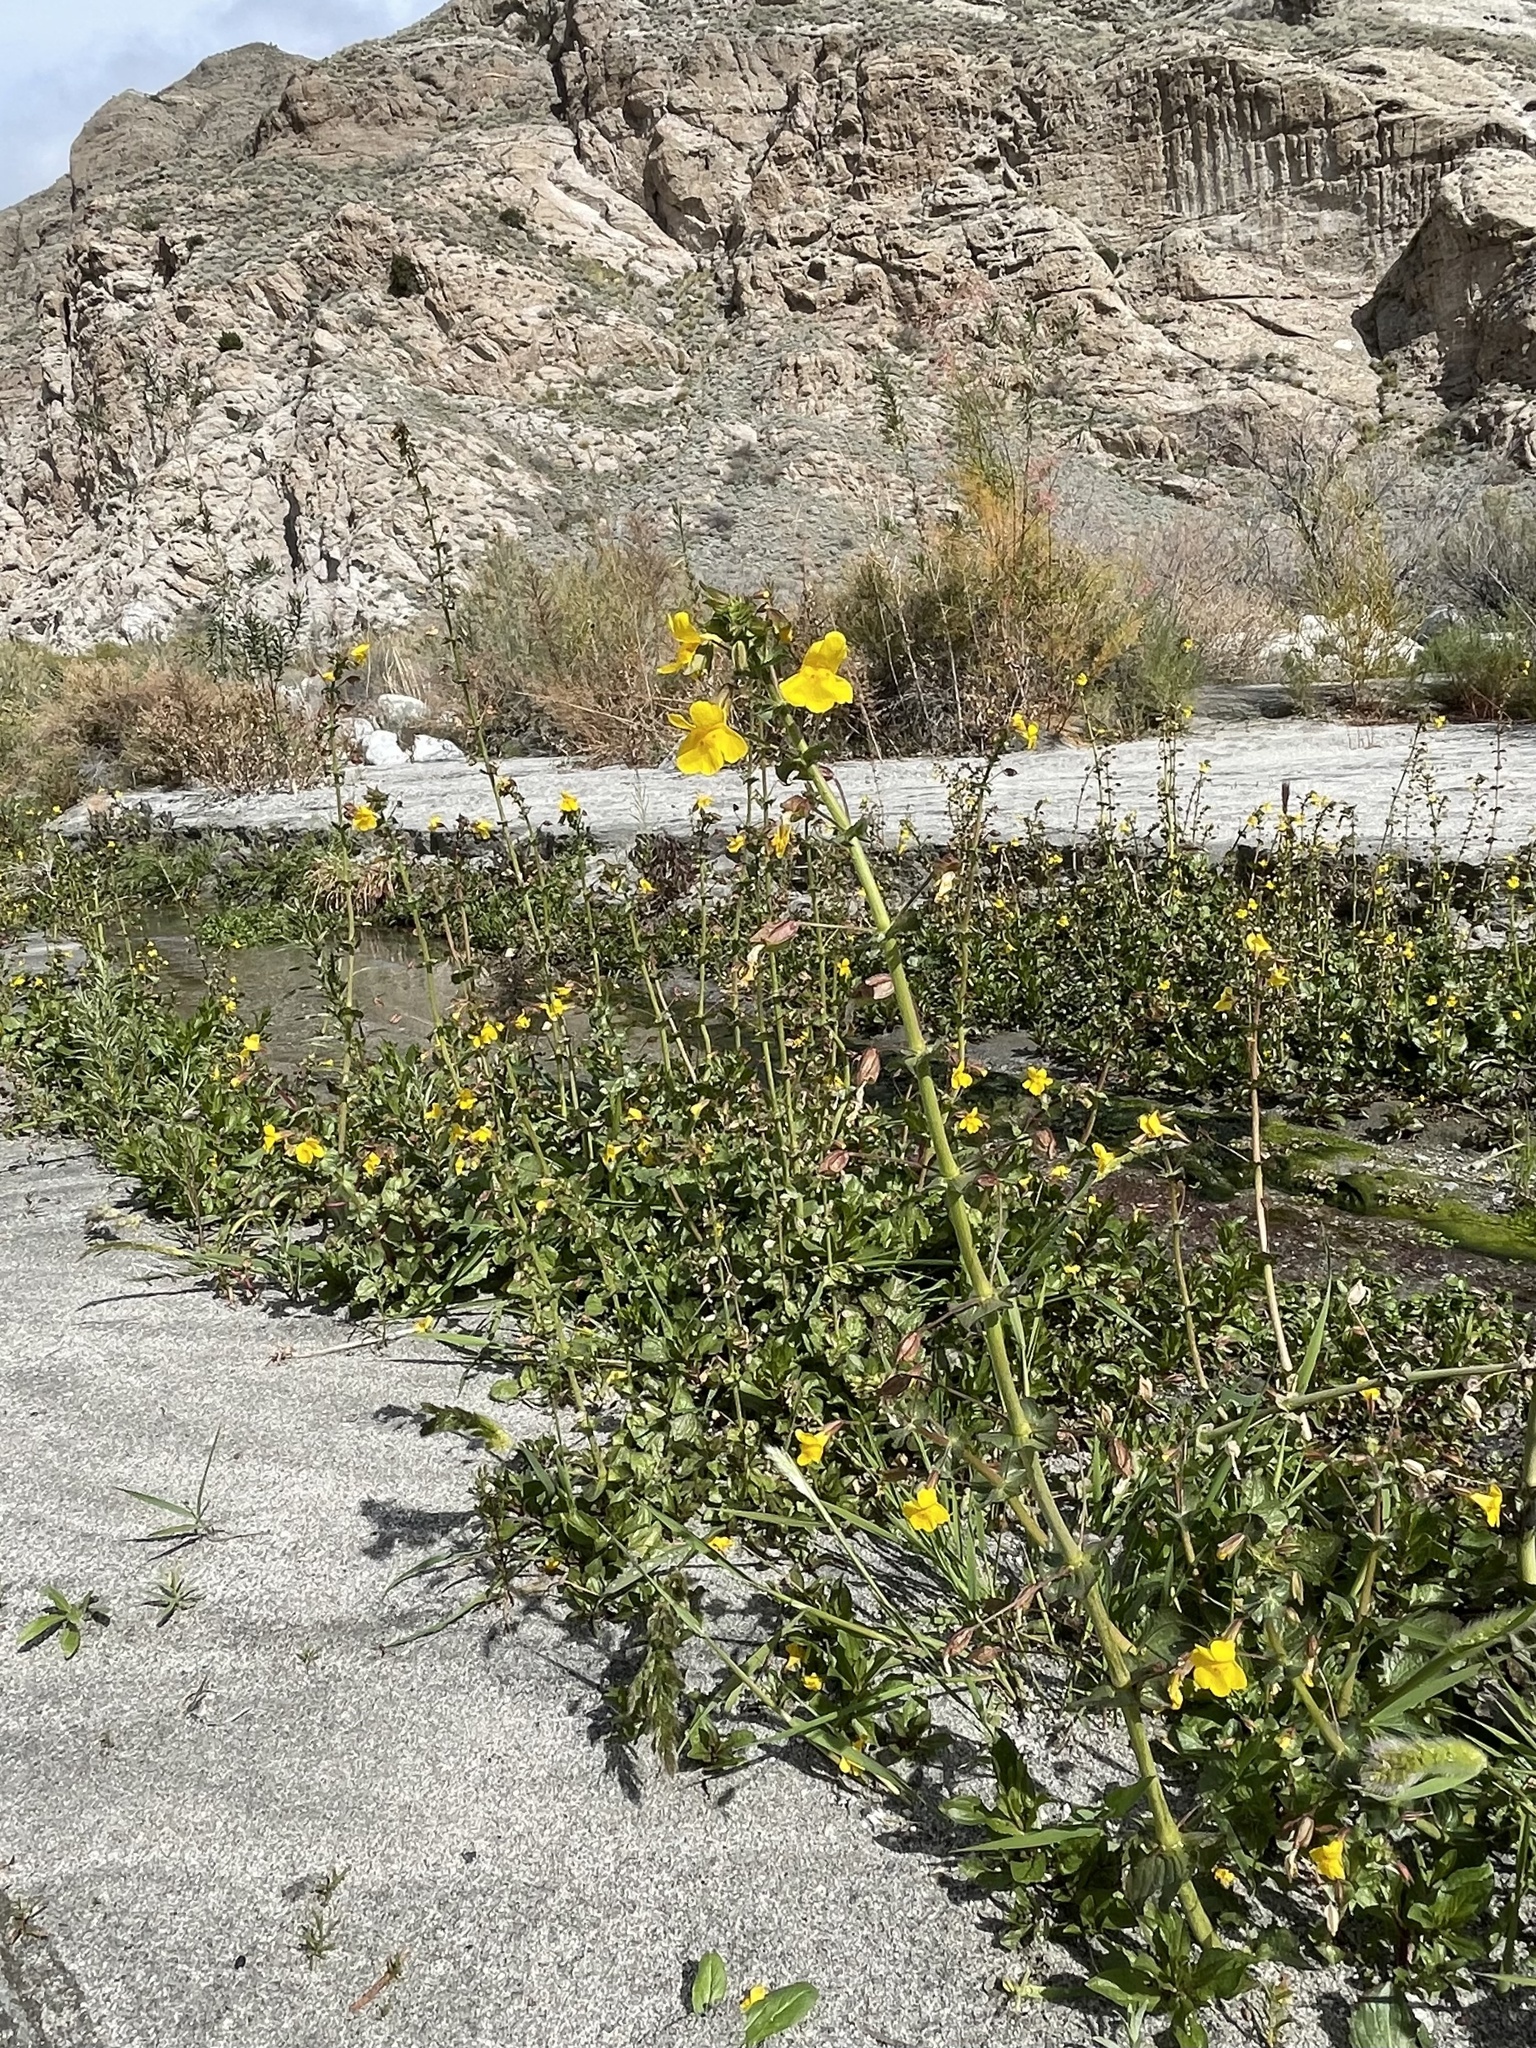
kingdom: Plantae
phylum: Tracheophyta
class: Magnoliopsida
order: Lamiales
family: Phrymaceae
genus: Erythranthe
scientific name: Erythranthe guttata
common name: Monkeyflower
